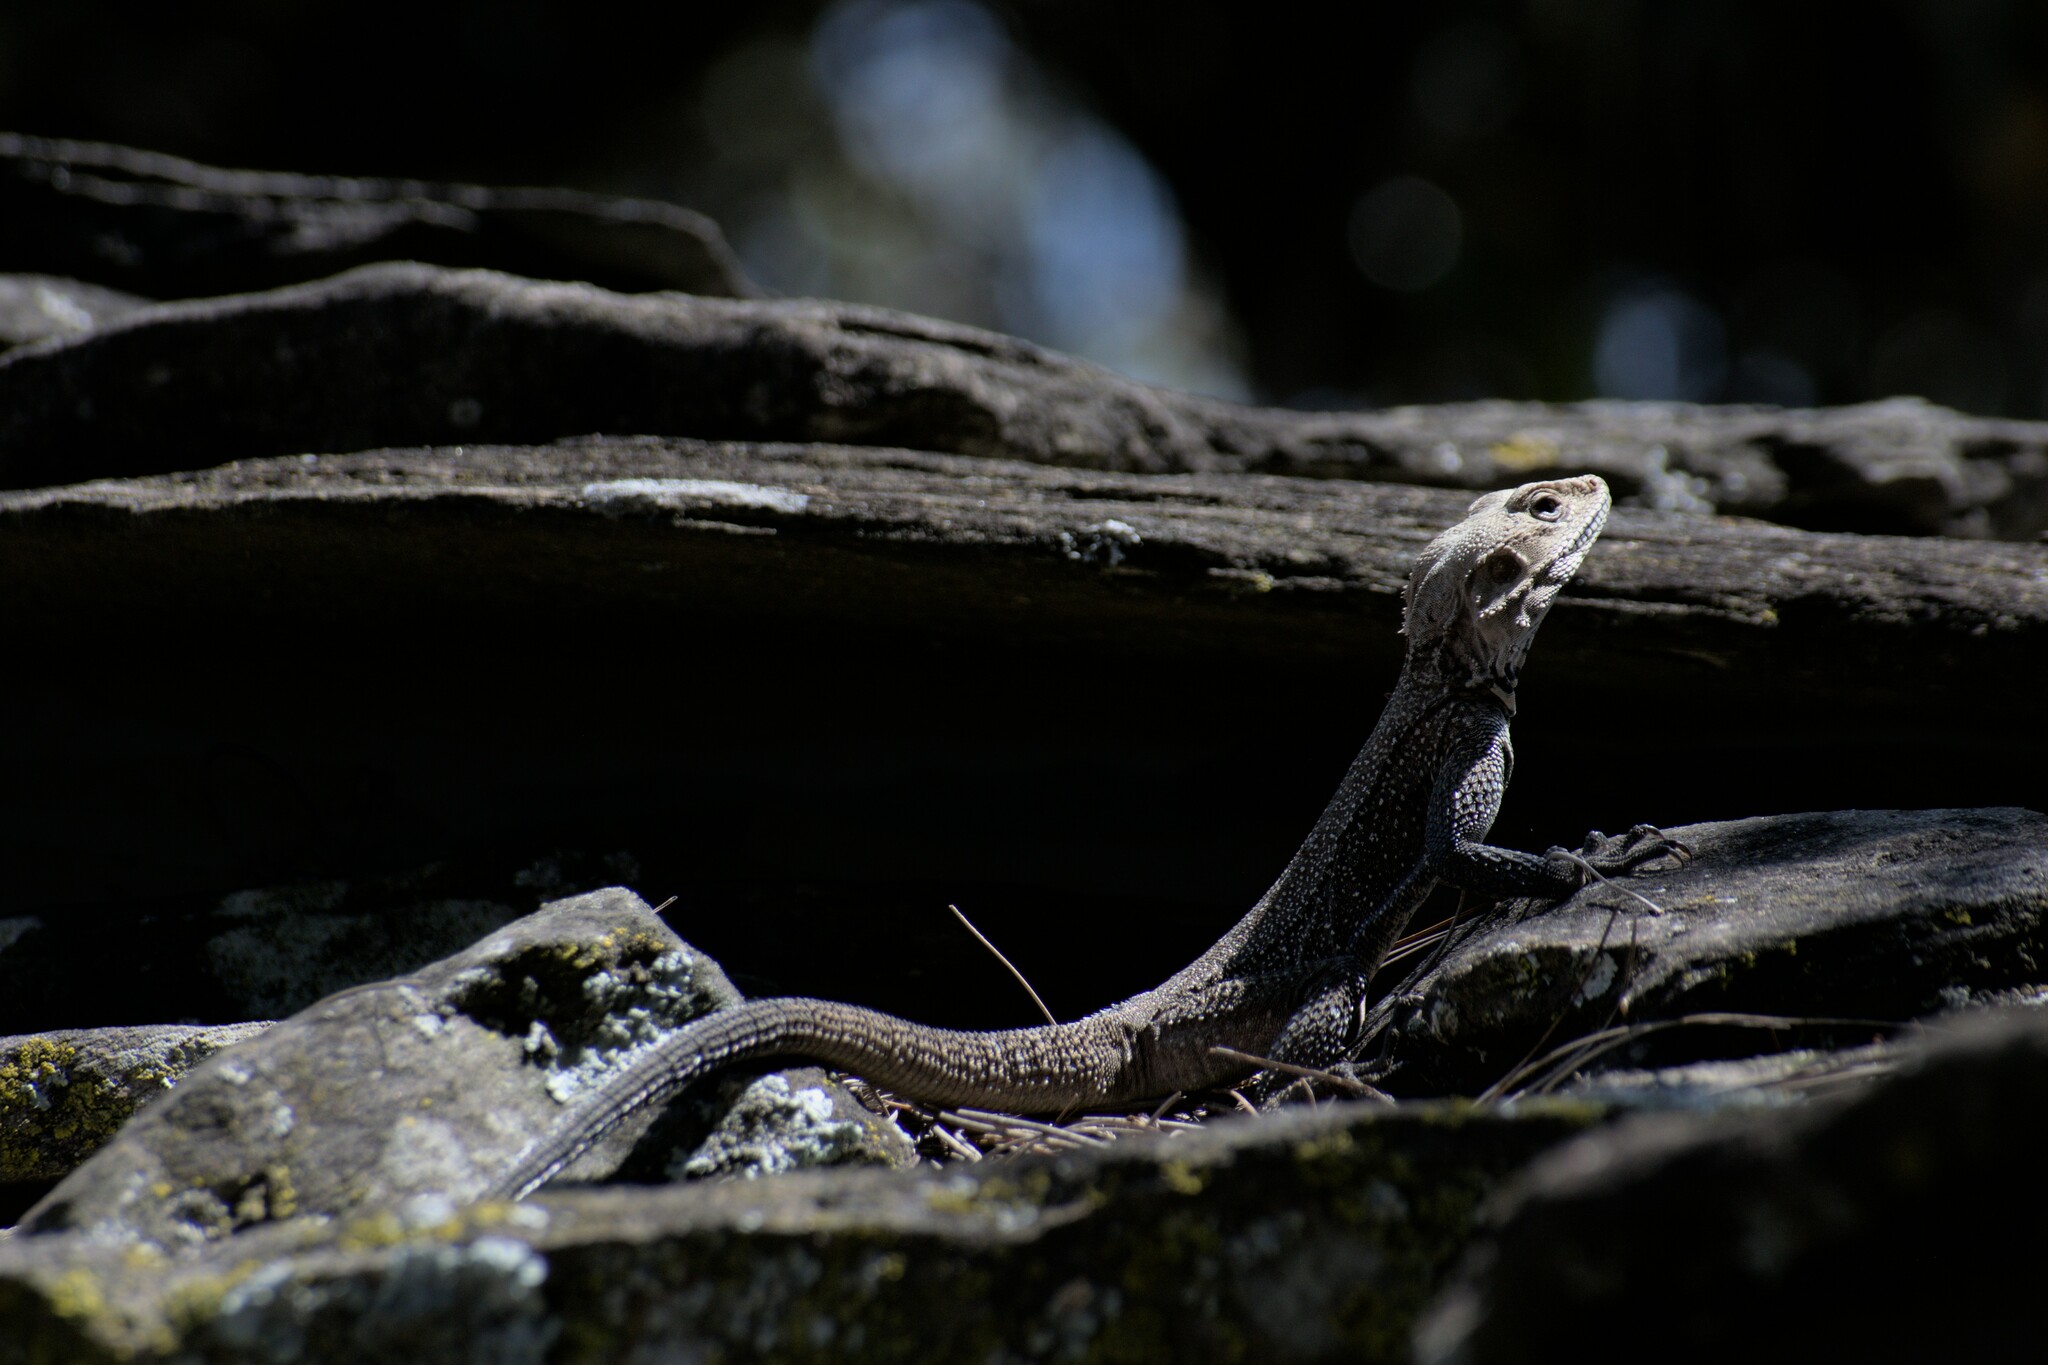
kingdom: Animalia
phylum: Chordata
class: Squamata
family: Agamidae
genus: Laudakia
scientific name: Laudakia tuberculata
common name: Kashmir rock agama
